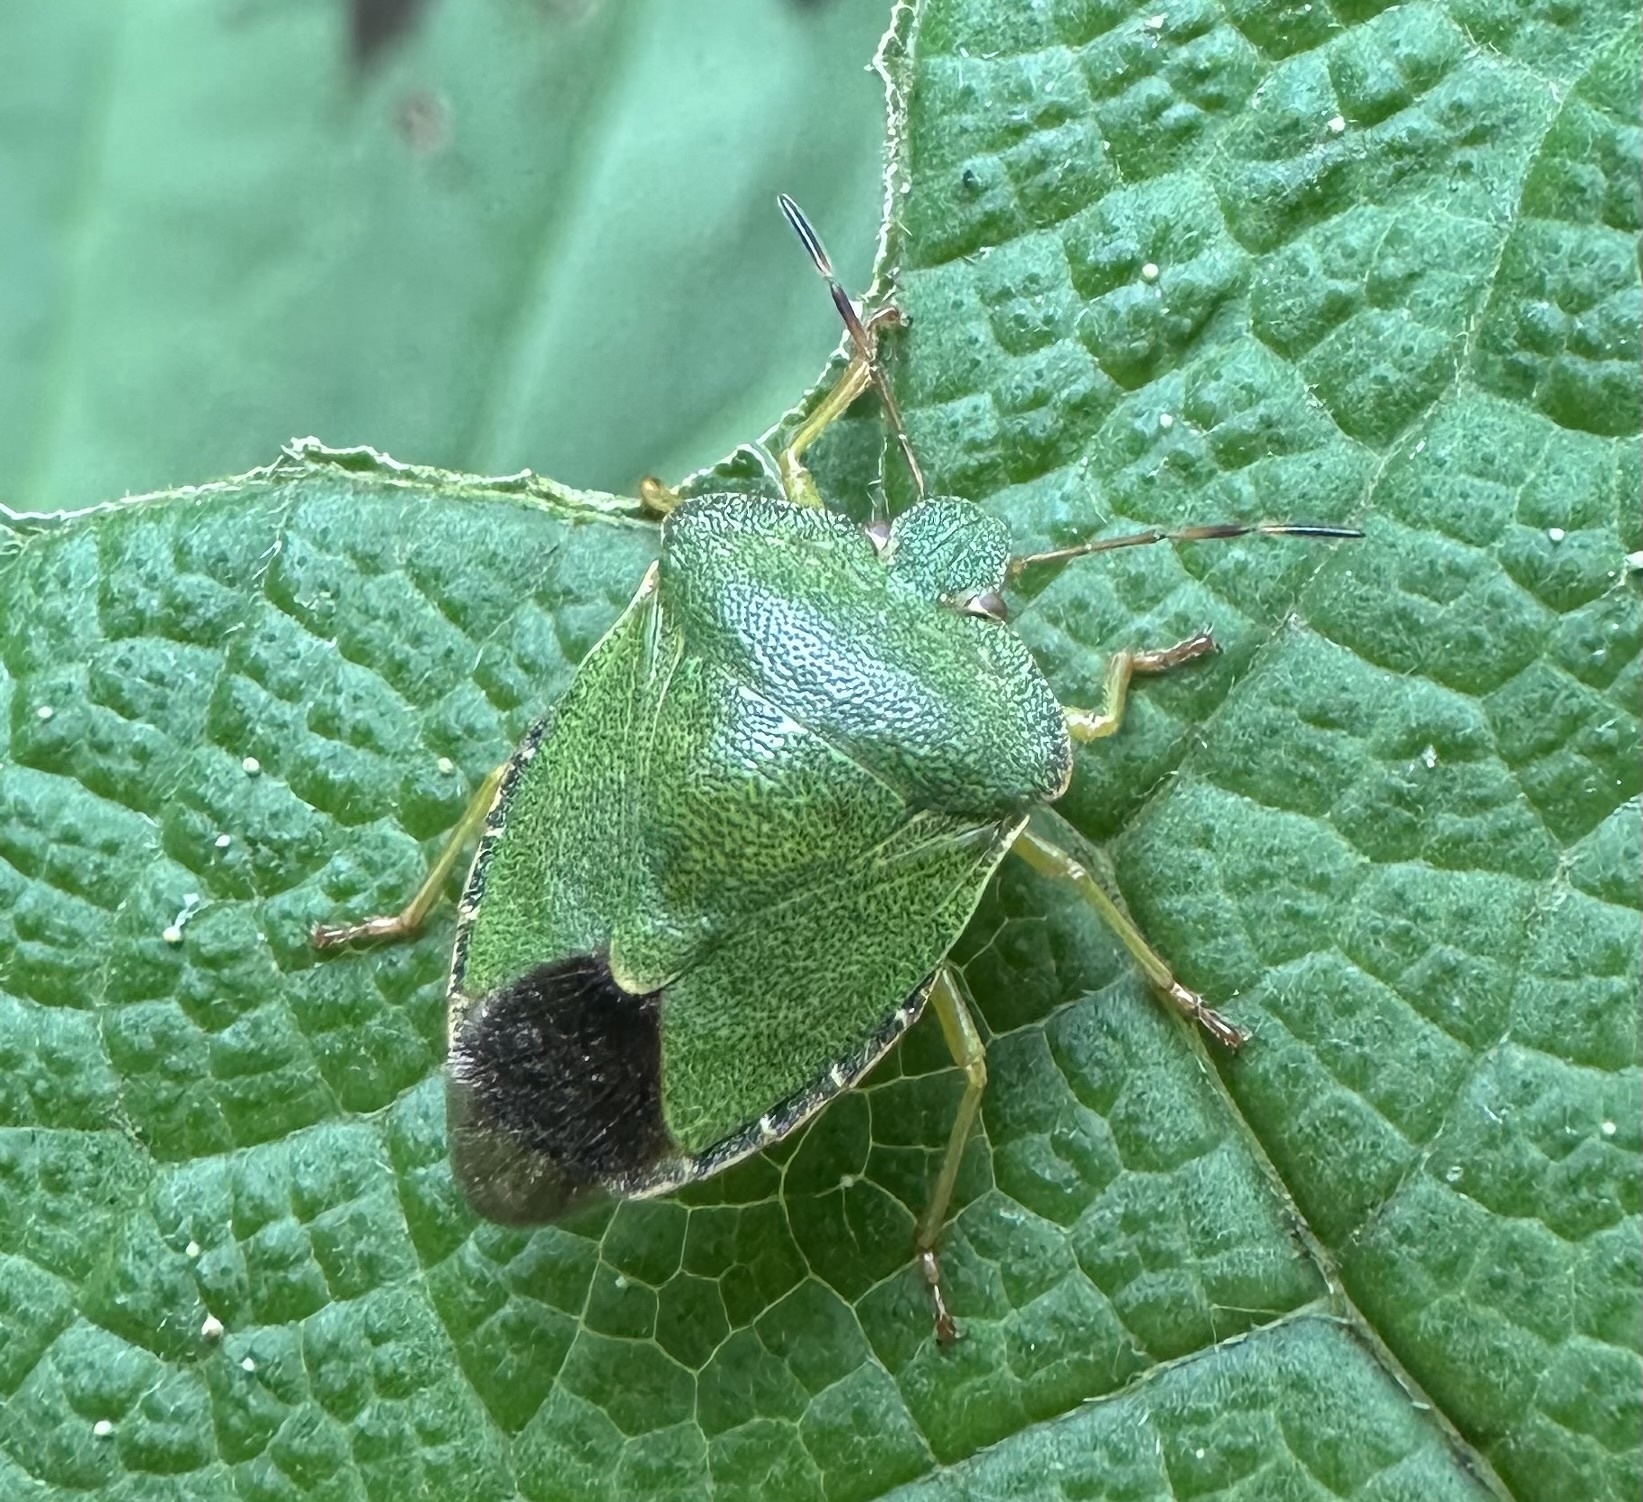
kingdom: Animalia
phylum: Arthropoda
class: Insecta
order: Hemiptera
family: Pentatomidae
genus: Palomena
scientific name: Palomena prasina
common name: Green shieldbug
